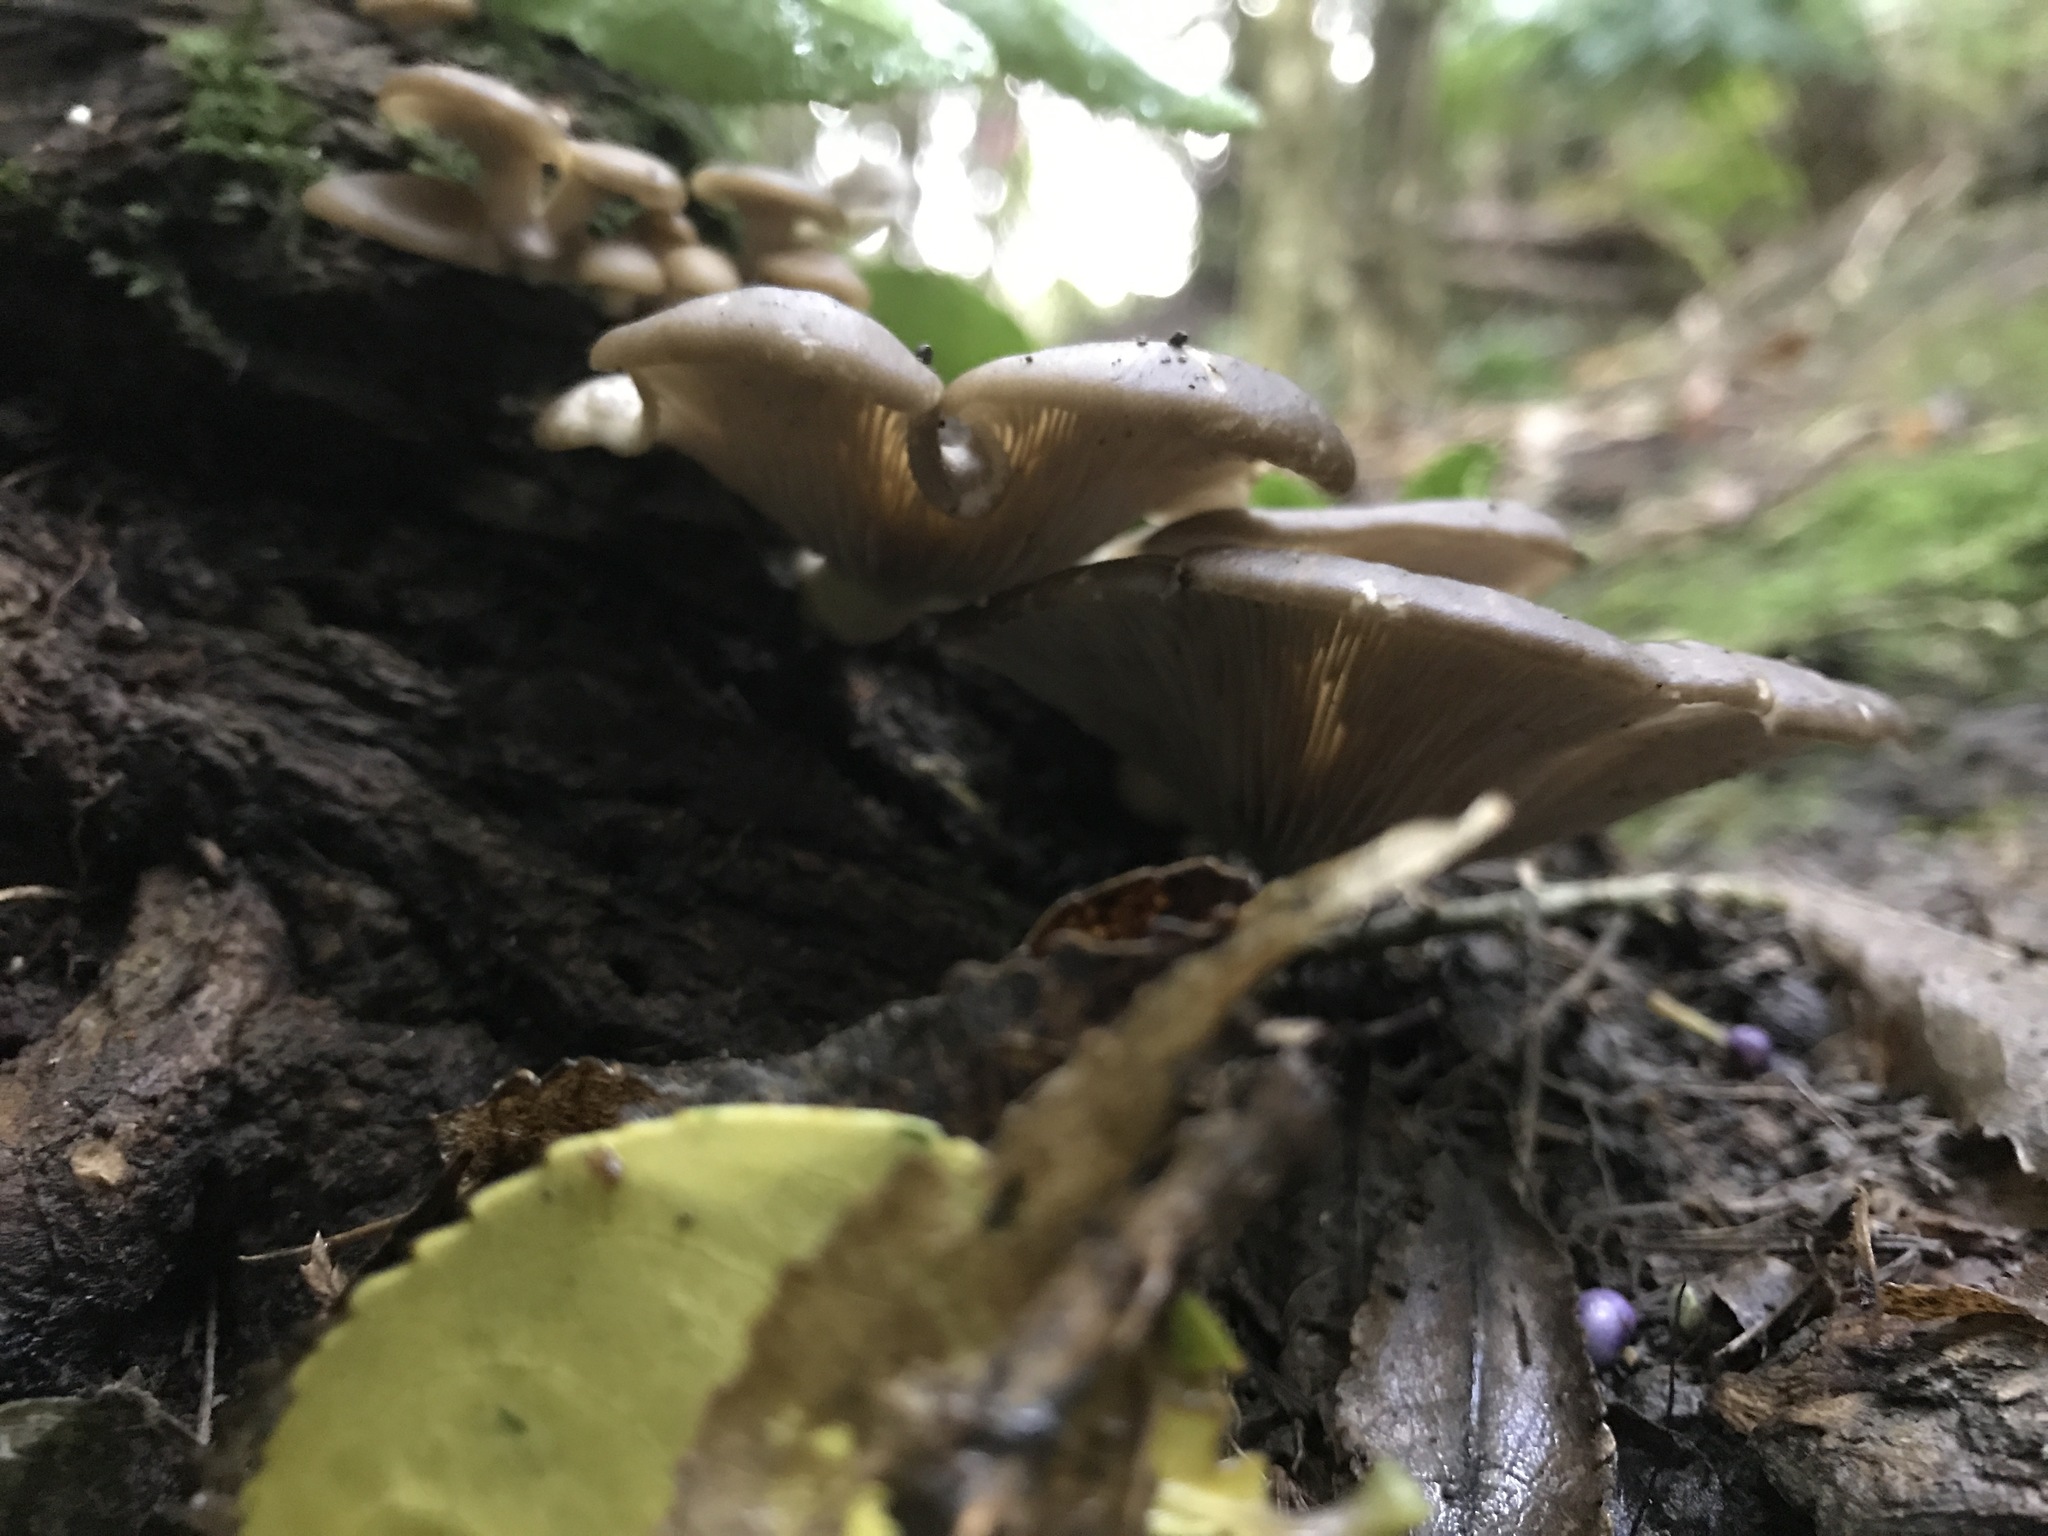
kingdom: Fungi
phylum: Basidiomycota
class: Agaricomycetes
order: Agaricales
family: Pleurotaceae
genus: Pleurotus
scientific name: Pleurotus purpureo-olivaceus
